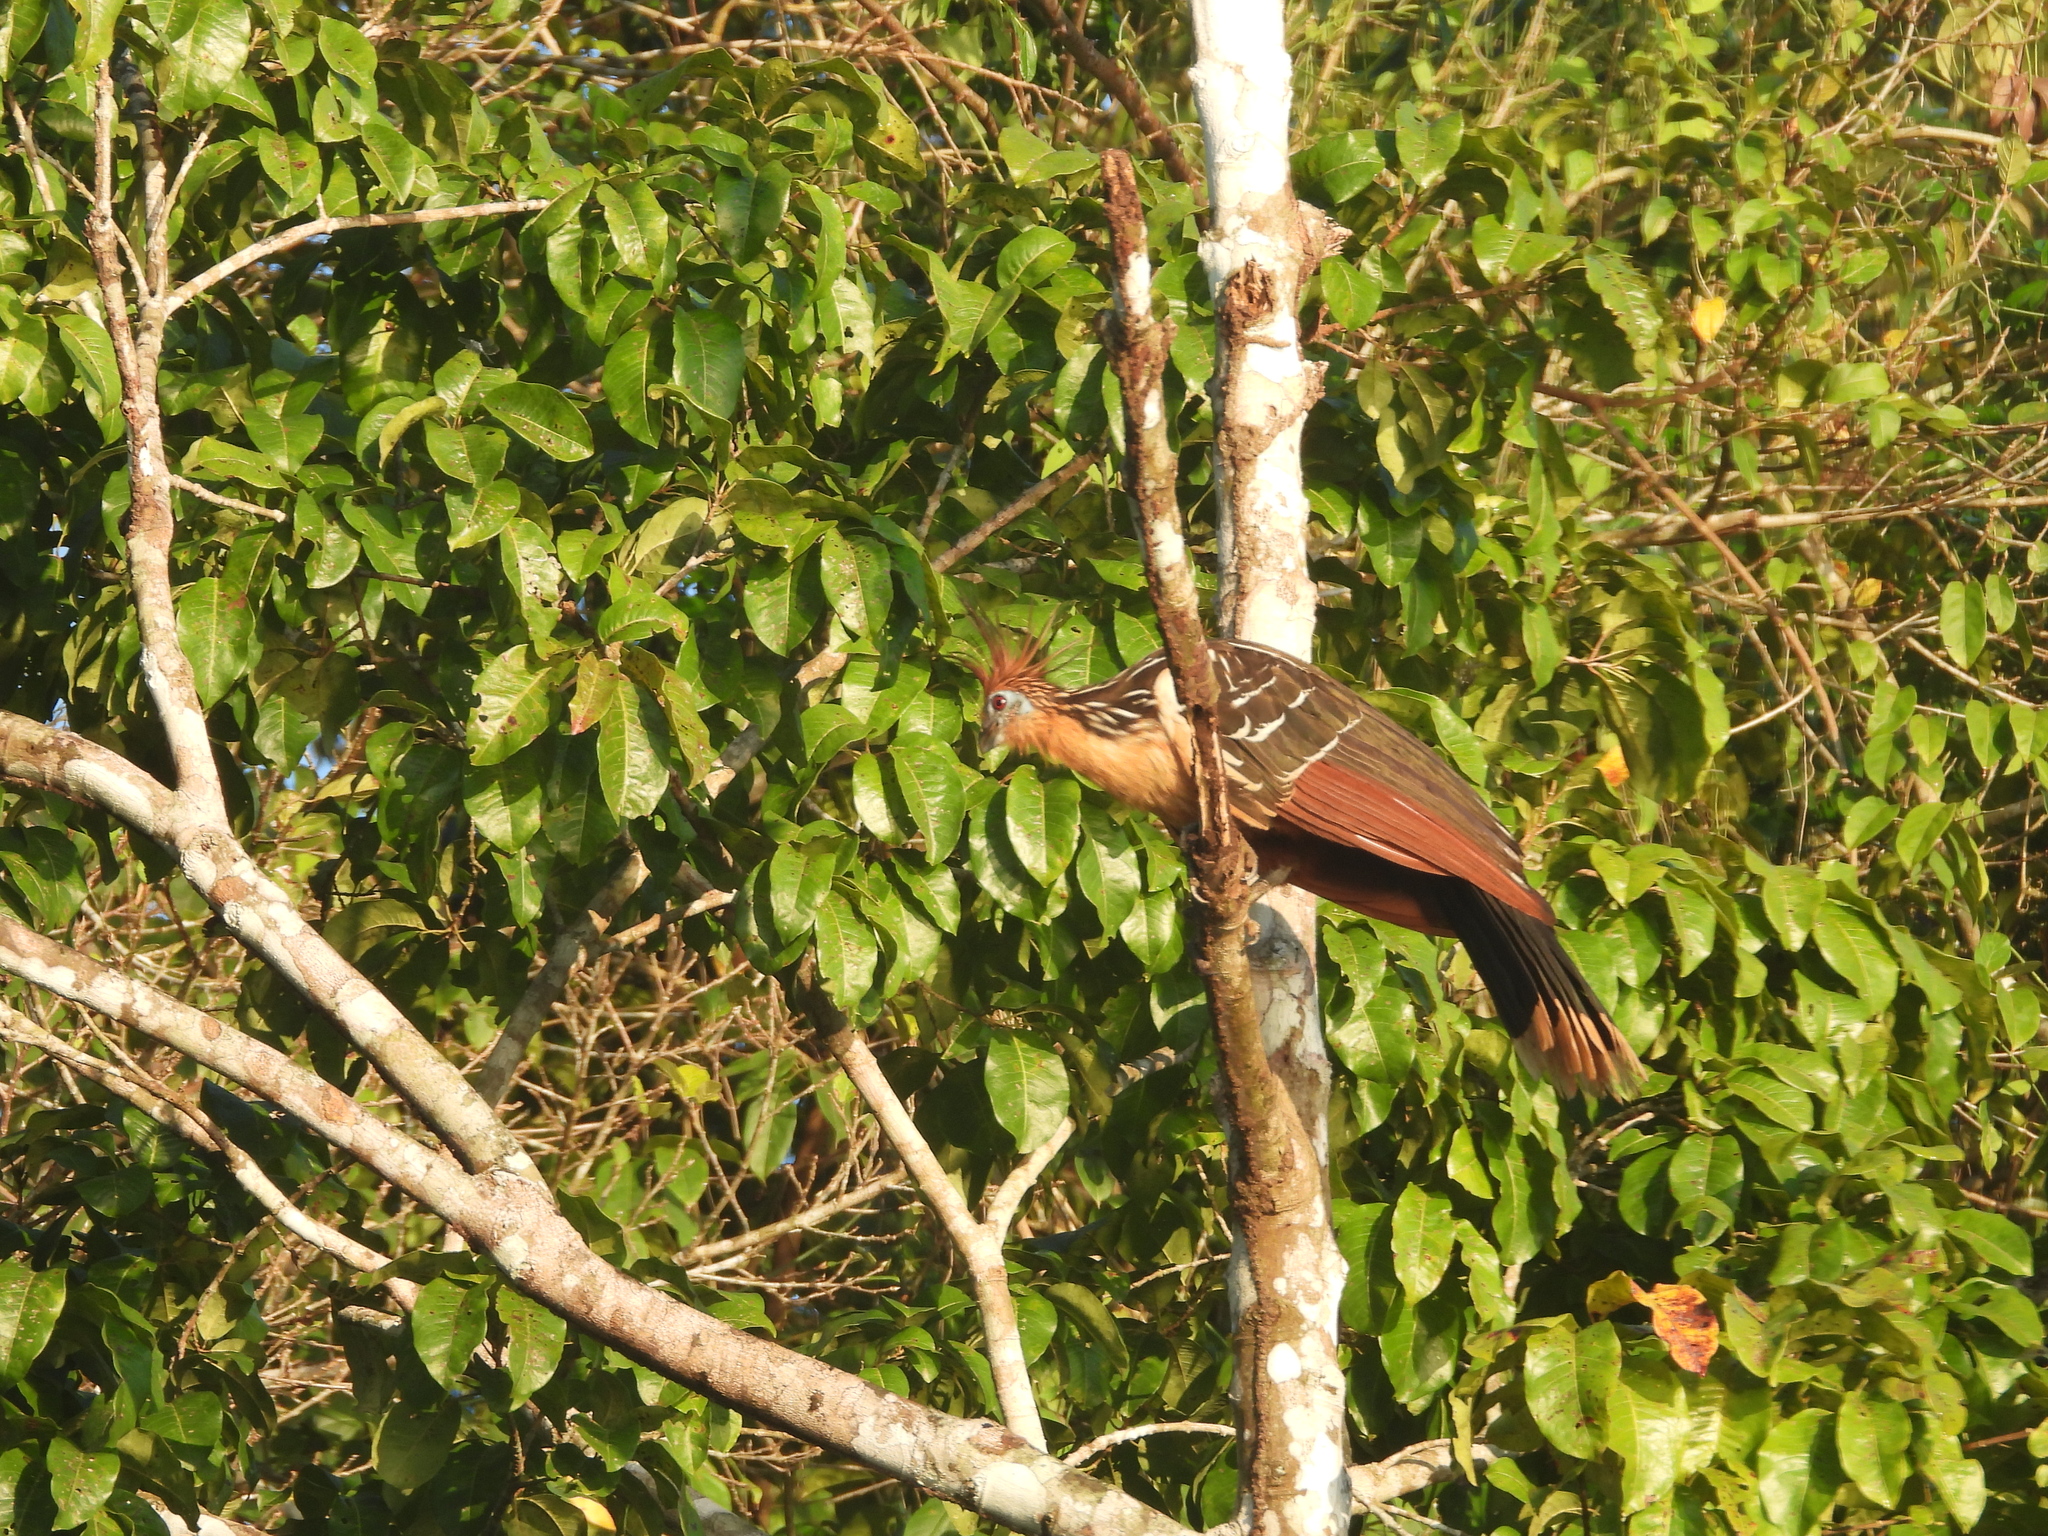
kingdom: Animalia
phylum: Chordata
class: Aves
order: Opisthocomiformes
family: Opisthocomidae
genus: Opisthocomus
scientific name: Opisthocomus hoazin
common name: Hoatzin
